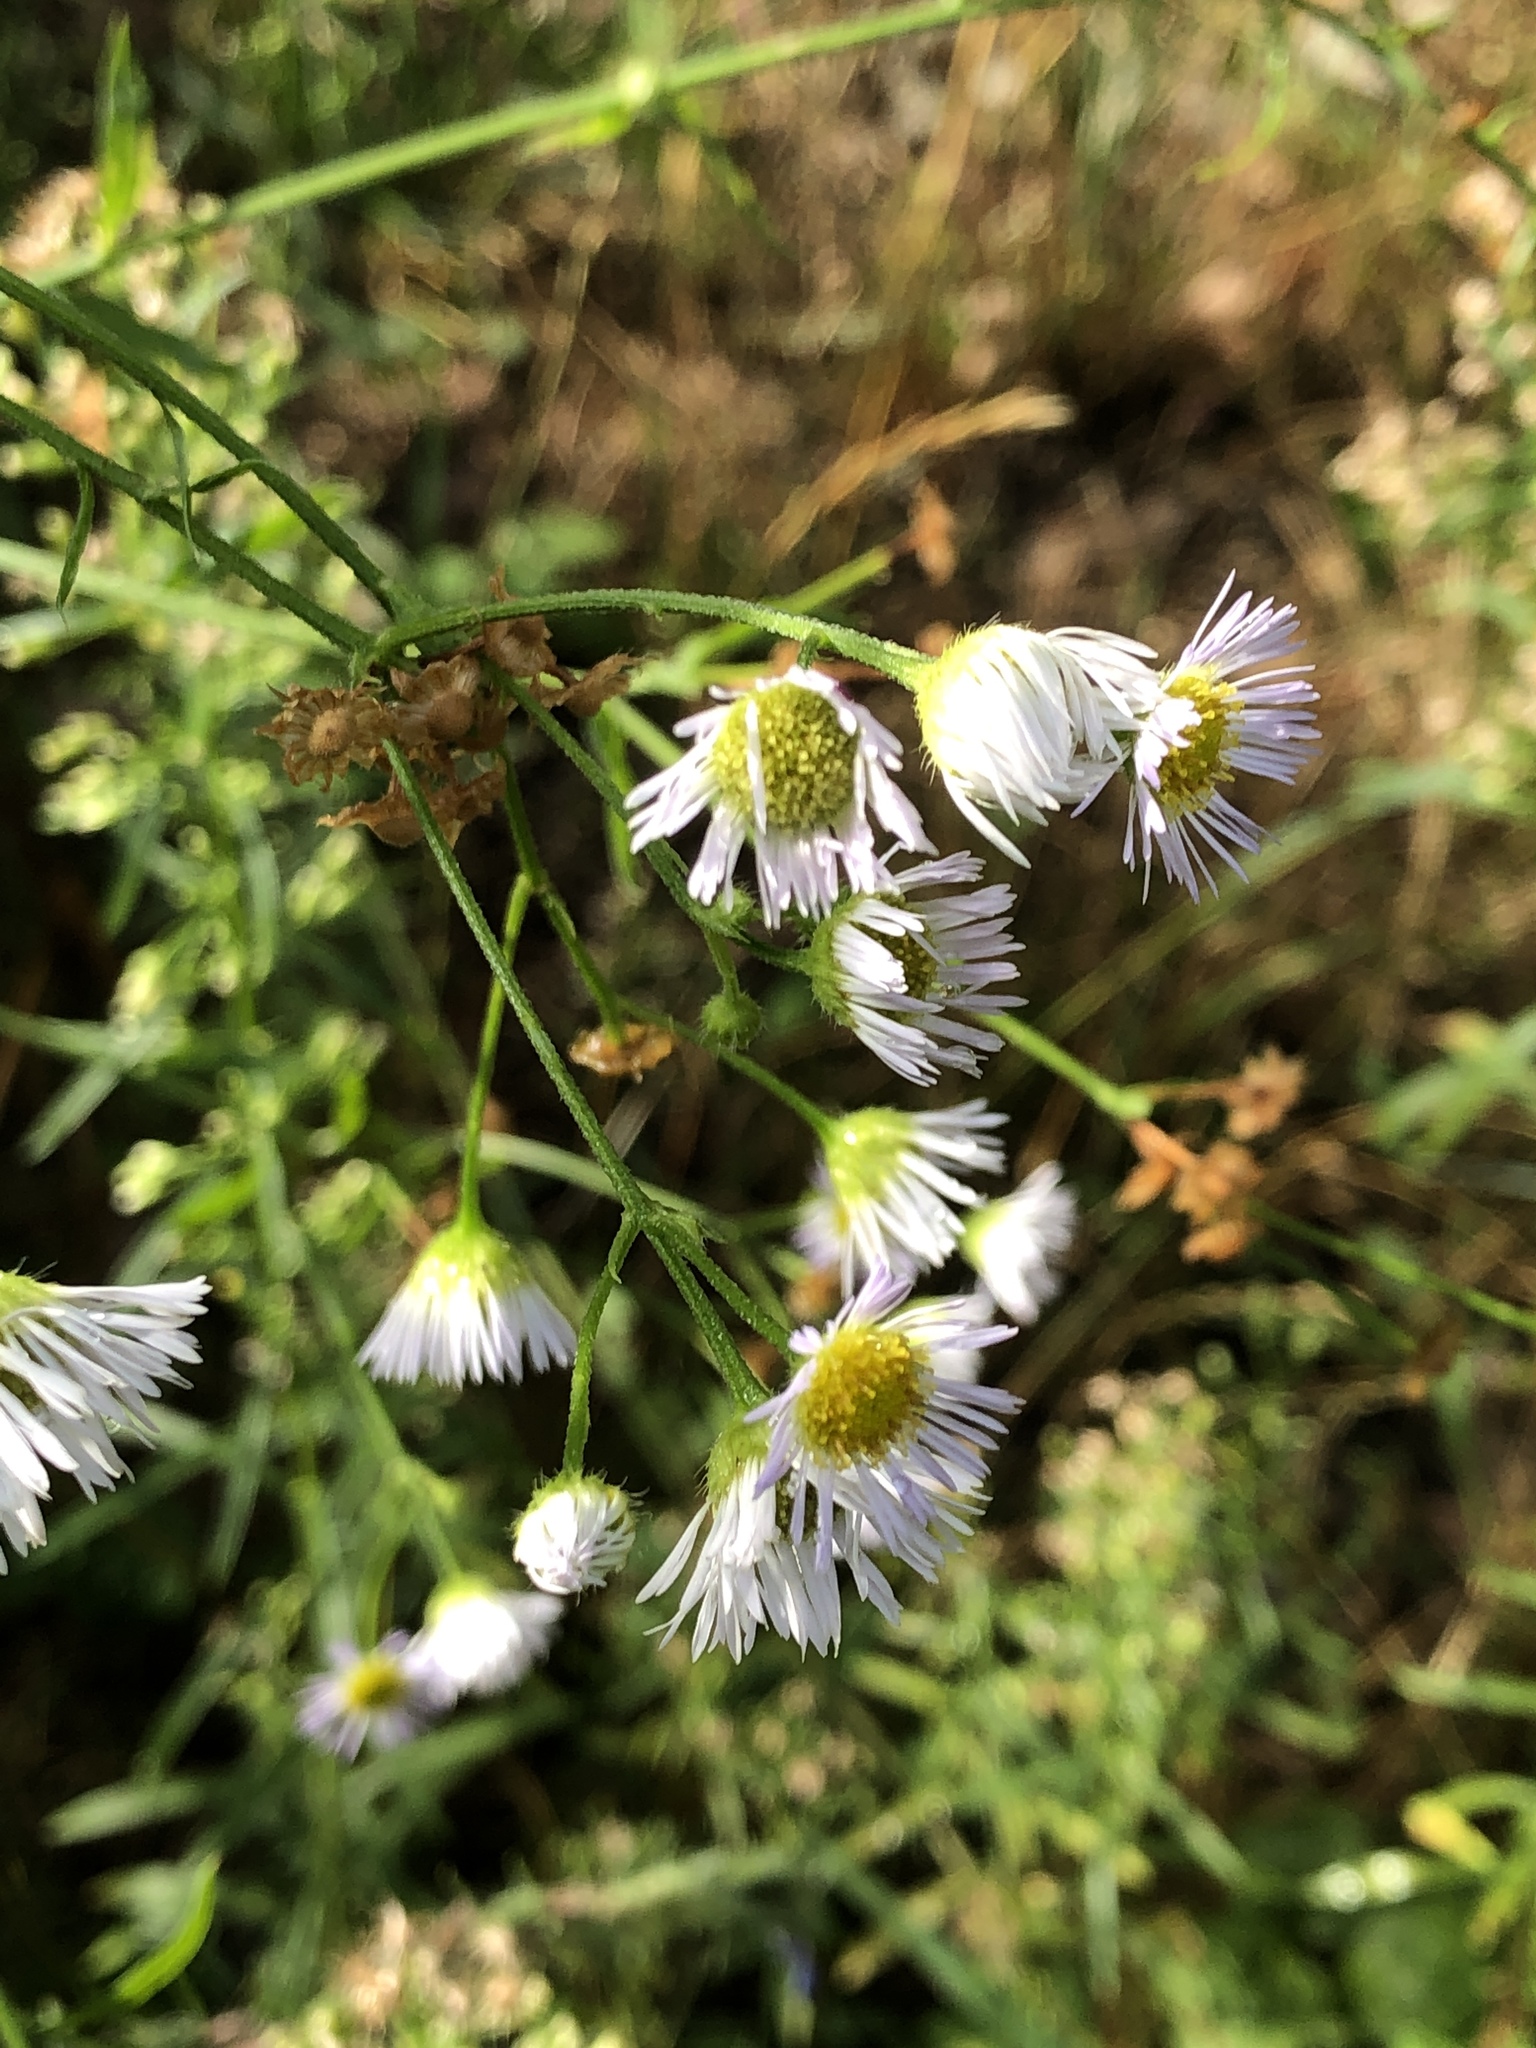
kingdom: Plantae
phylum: Tracheophyta
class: Magnoliopsida
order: Asterales
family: Asteraceae
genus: Erigeron
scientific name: Erigeron annuus
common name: Tall fleabane
